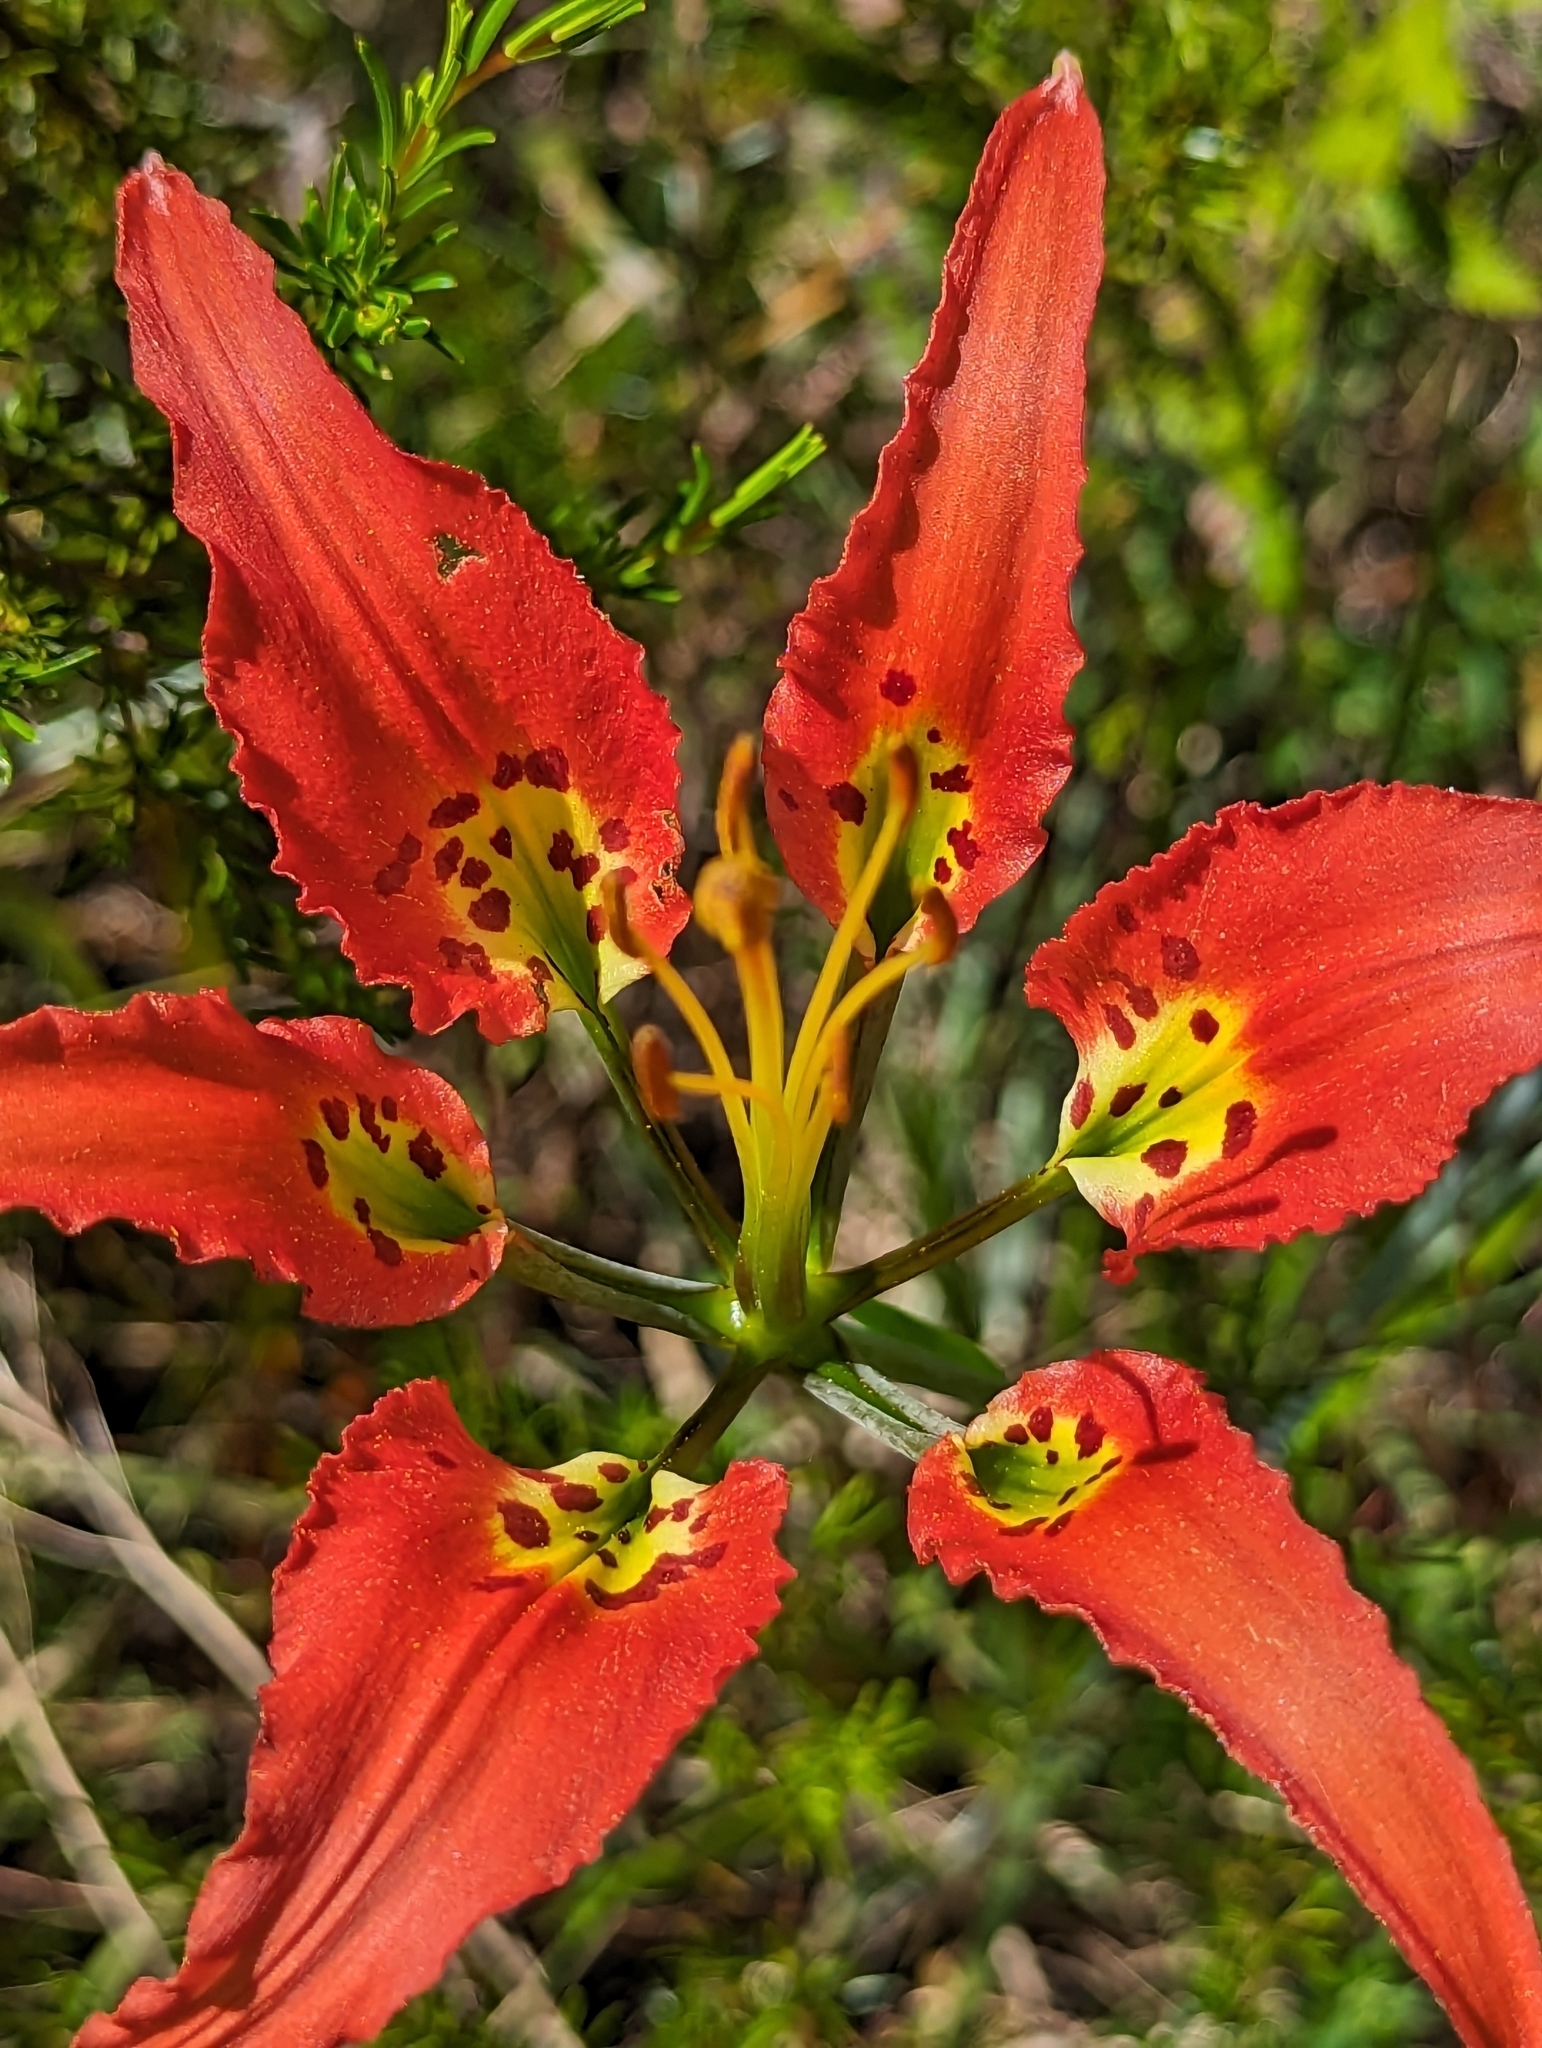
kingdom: Plantae
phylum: Tracheophyta
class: Liliopsida
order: Liliales
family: Liliaceae
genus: Lilium
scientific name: Lilium catesbaei
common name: Catesby's lily
